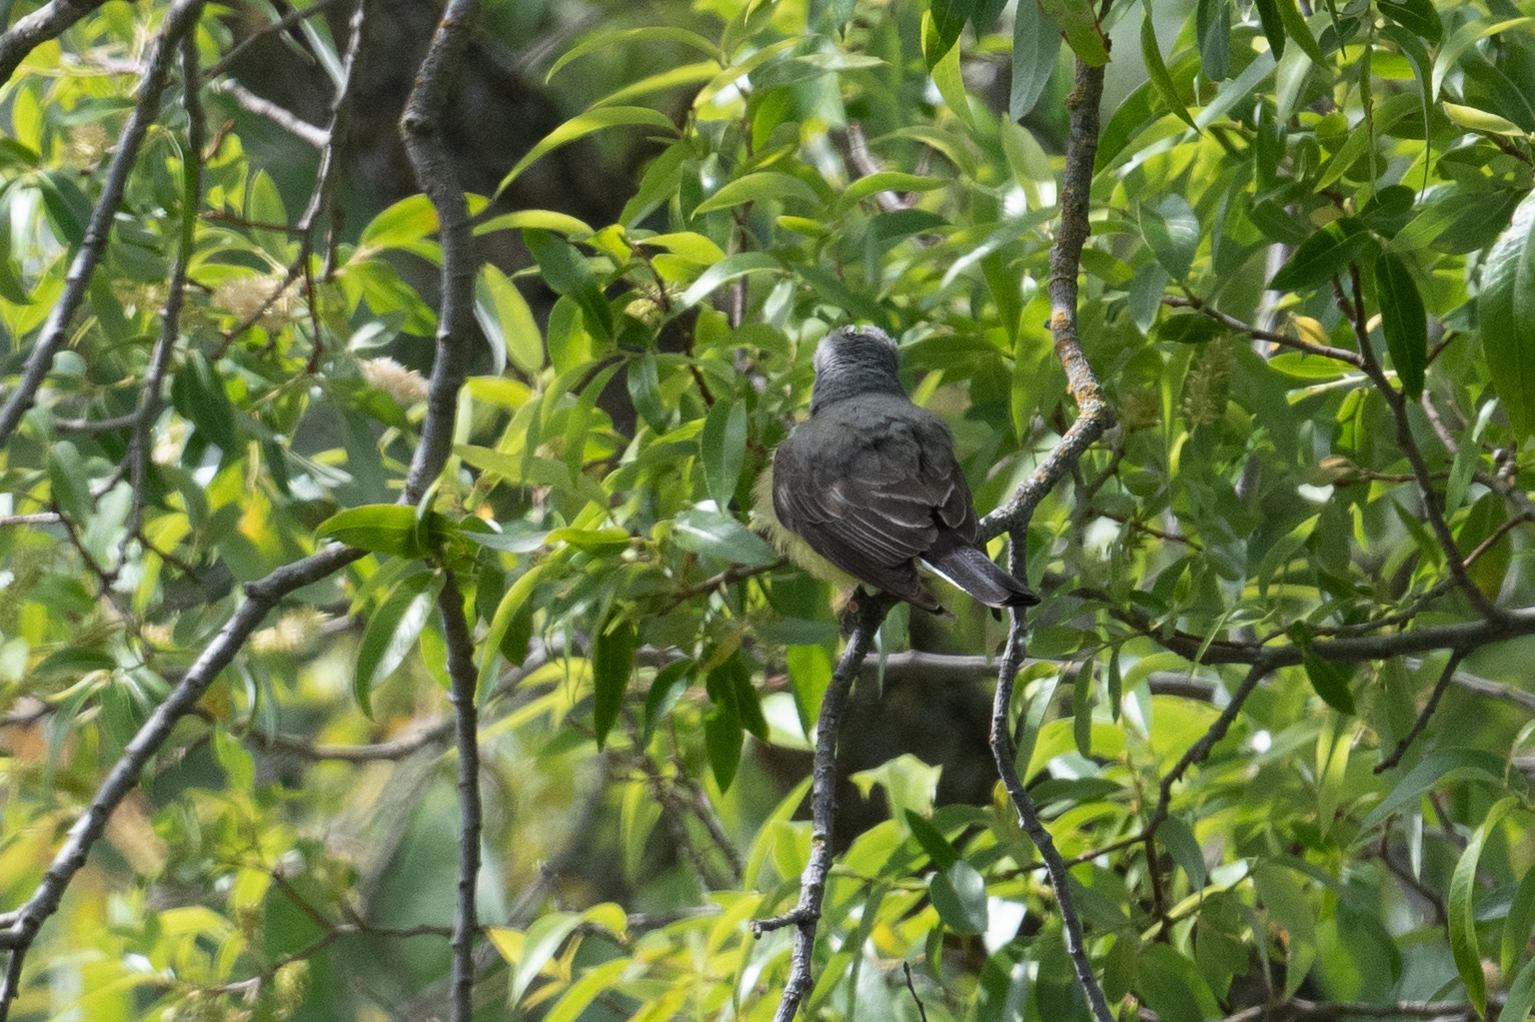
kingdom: Animalia
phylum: Chordata
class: Aves
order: Passeriformes
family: Tyrannidae
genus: Tyrannus
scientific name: Tyrannus verticalis
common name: Western kingbird
